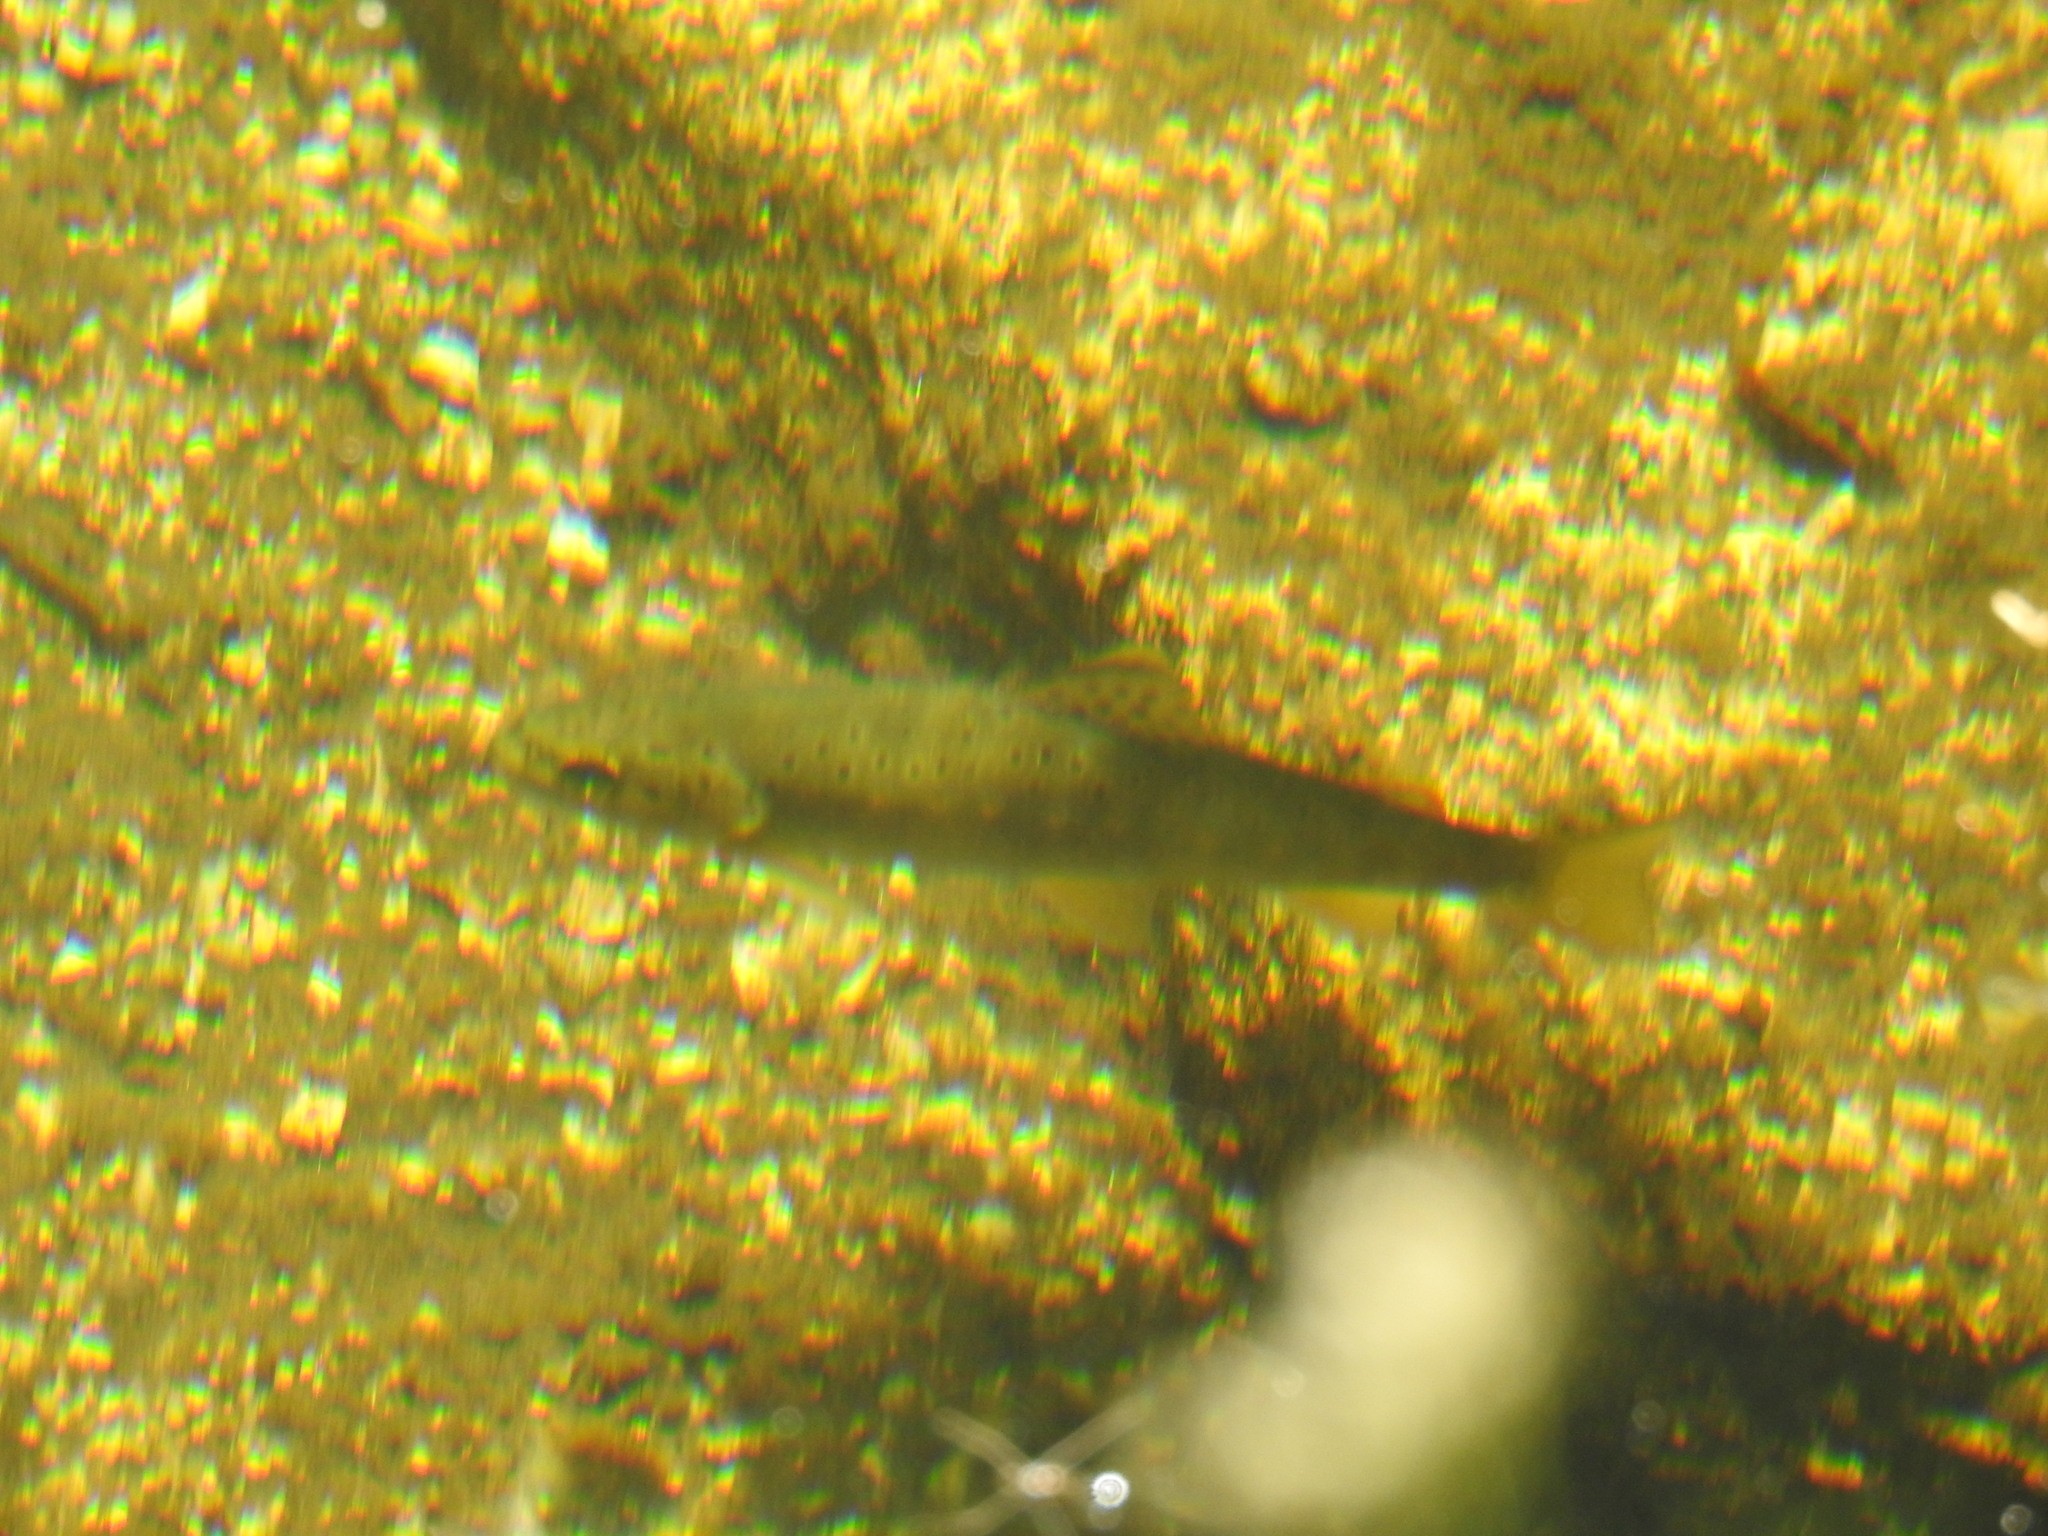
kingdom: Animalia
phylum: Chordata
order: Salmoniformes
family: Salmonidae
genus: Salmo
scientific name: Salmo trutta
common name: Brown trout
